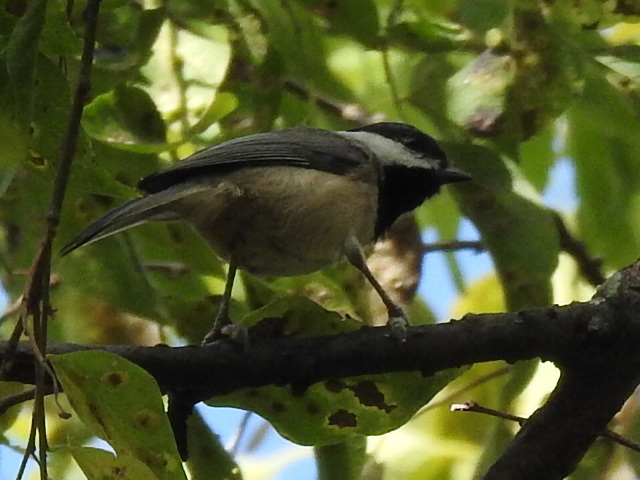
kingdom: Animalia
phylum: Chordata
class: Aves
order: Passeriformes
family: Paridae
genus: Poecile
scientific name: Poecile carolinensis
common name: Carolina chickadee
